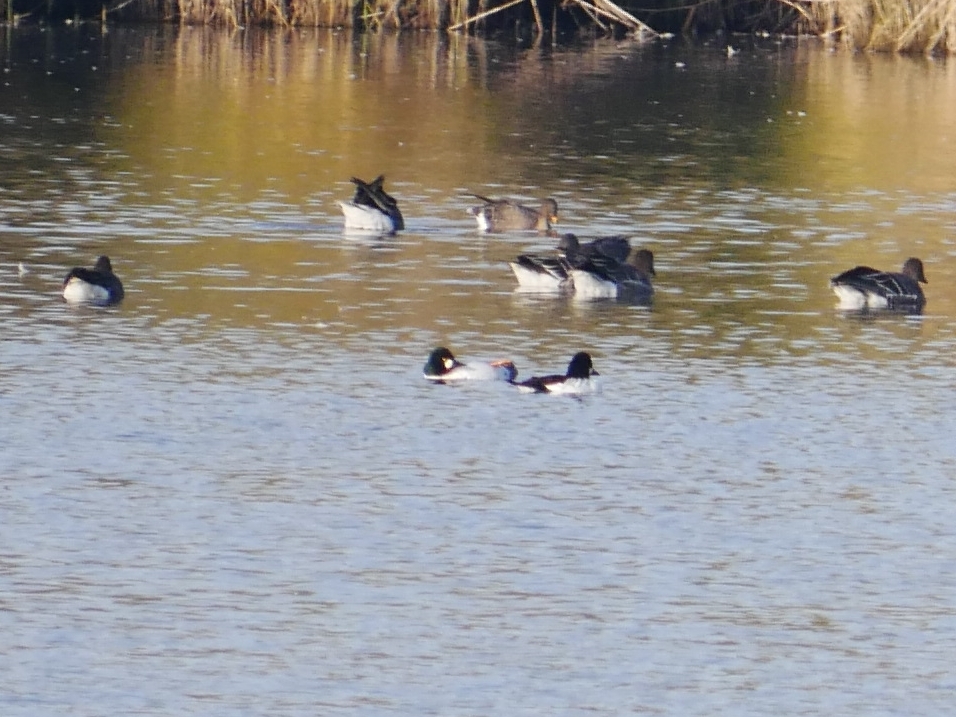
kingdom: Animalia
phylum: Chordata
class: Aves
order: Anseriformes
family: Anatidae
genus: Bucephala
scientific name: Bucephala clangula
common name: Common goldeneye
